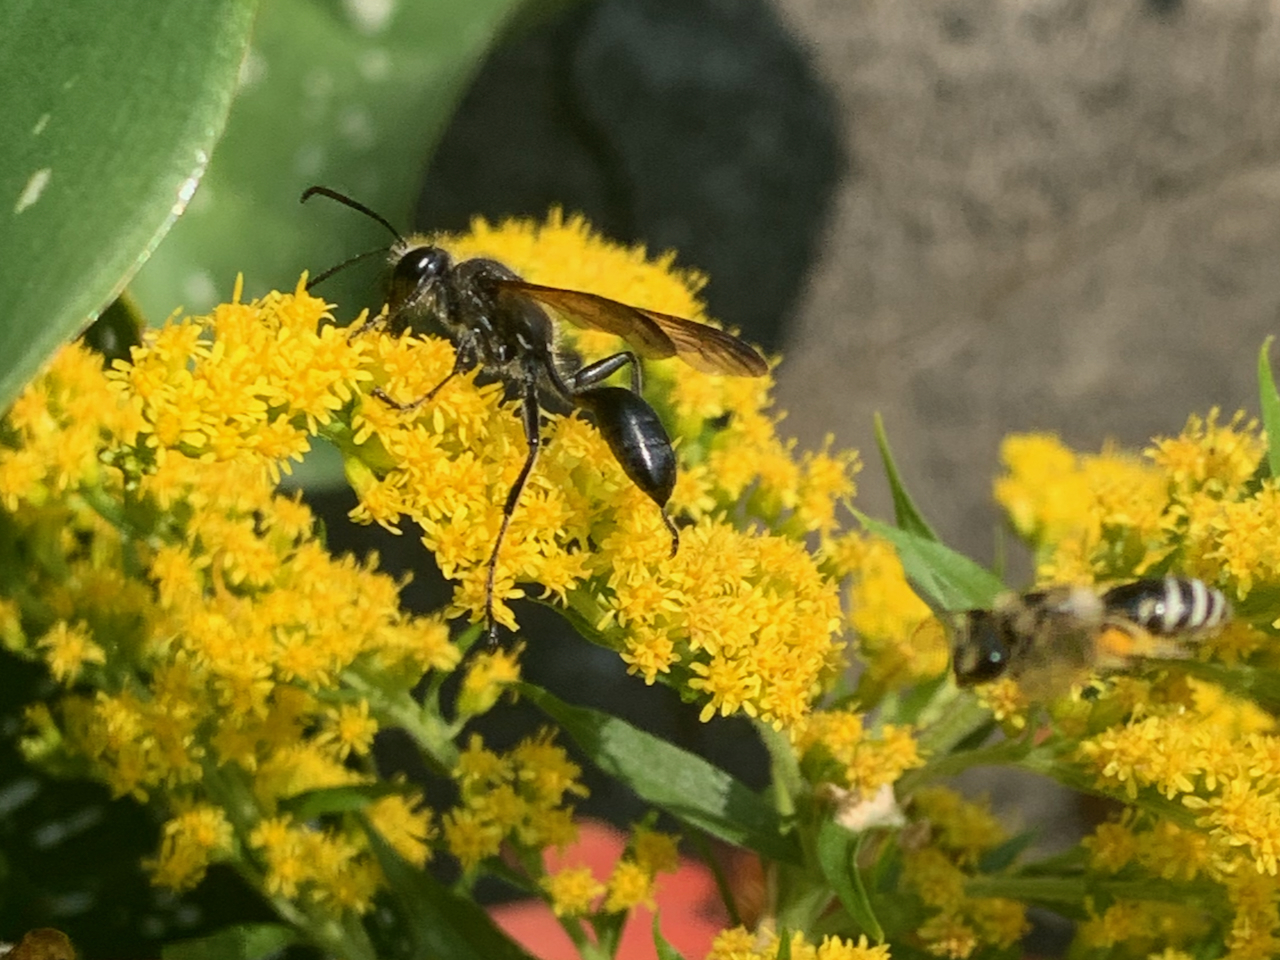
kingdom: Animalia
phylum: Arthropoda
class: Insecta
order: Hymenoptera
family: Sphecidae
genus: Isodontia
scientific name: Isodontia mexicana
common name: Mud dauber
